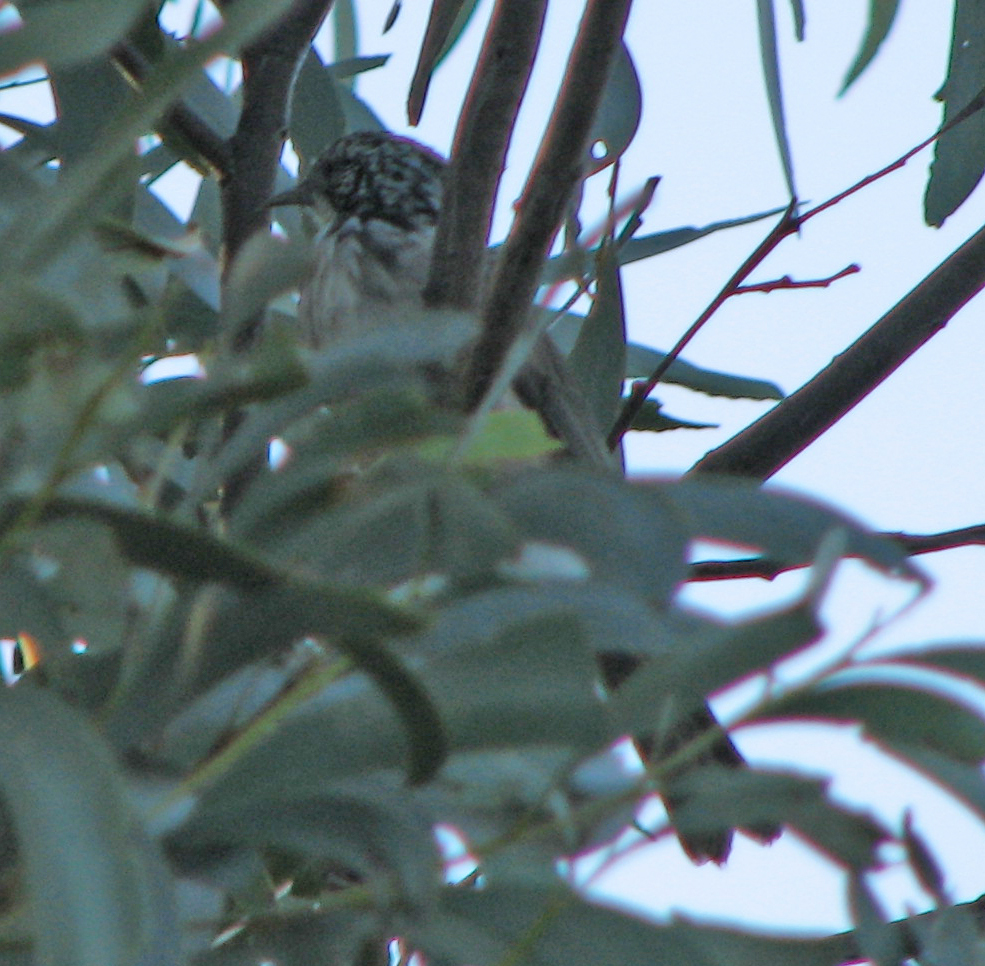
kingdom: Animalia
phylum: Chordata
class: Aves
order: Passeriformes
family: Meliphagidae
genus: Plectorhyncha
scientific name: Plectorhyncha lanceolata
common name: Striped honeyeater
